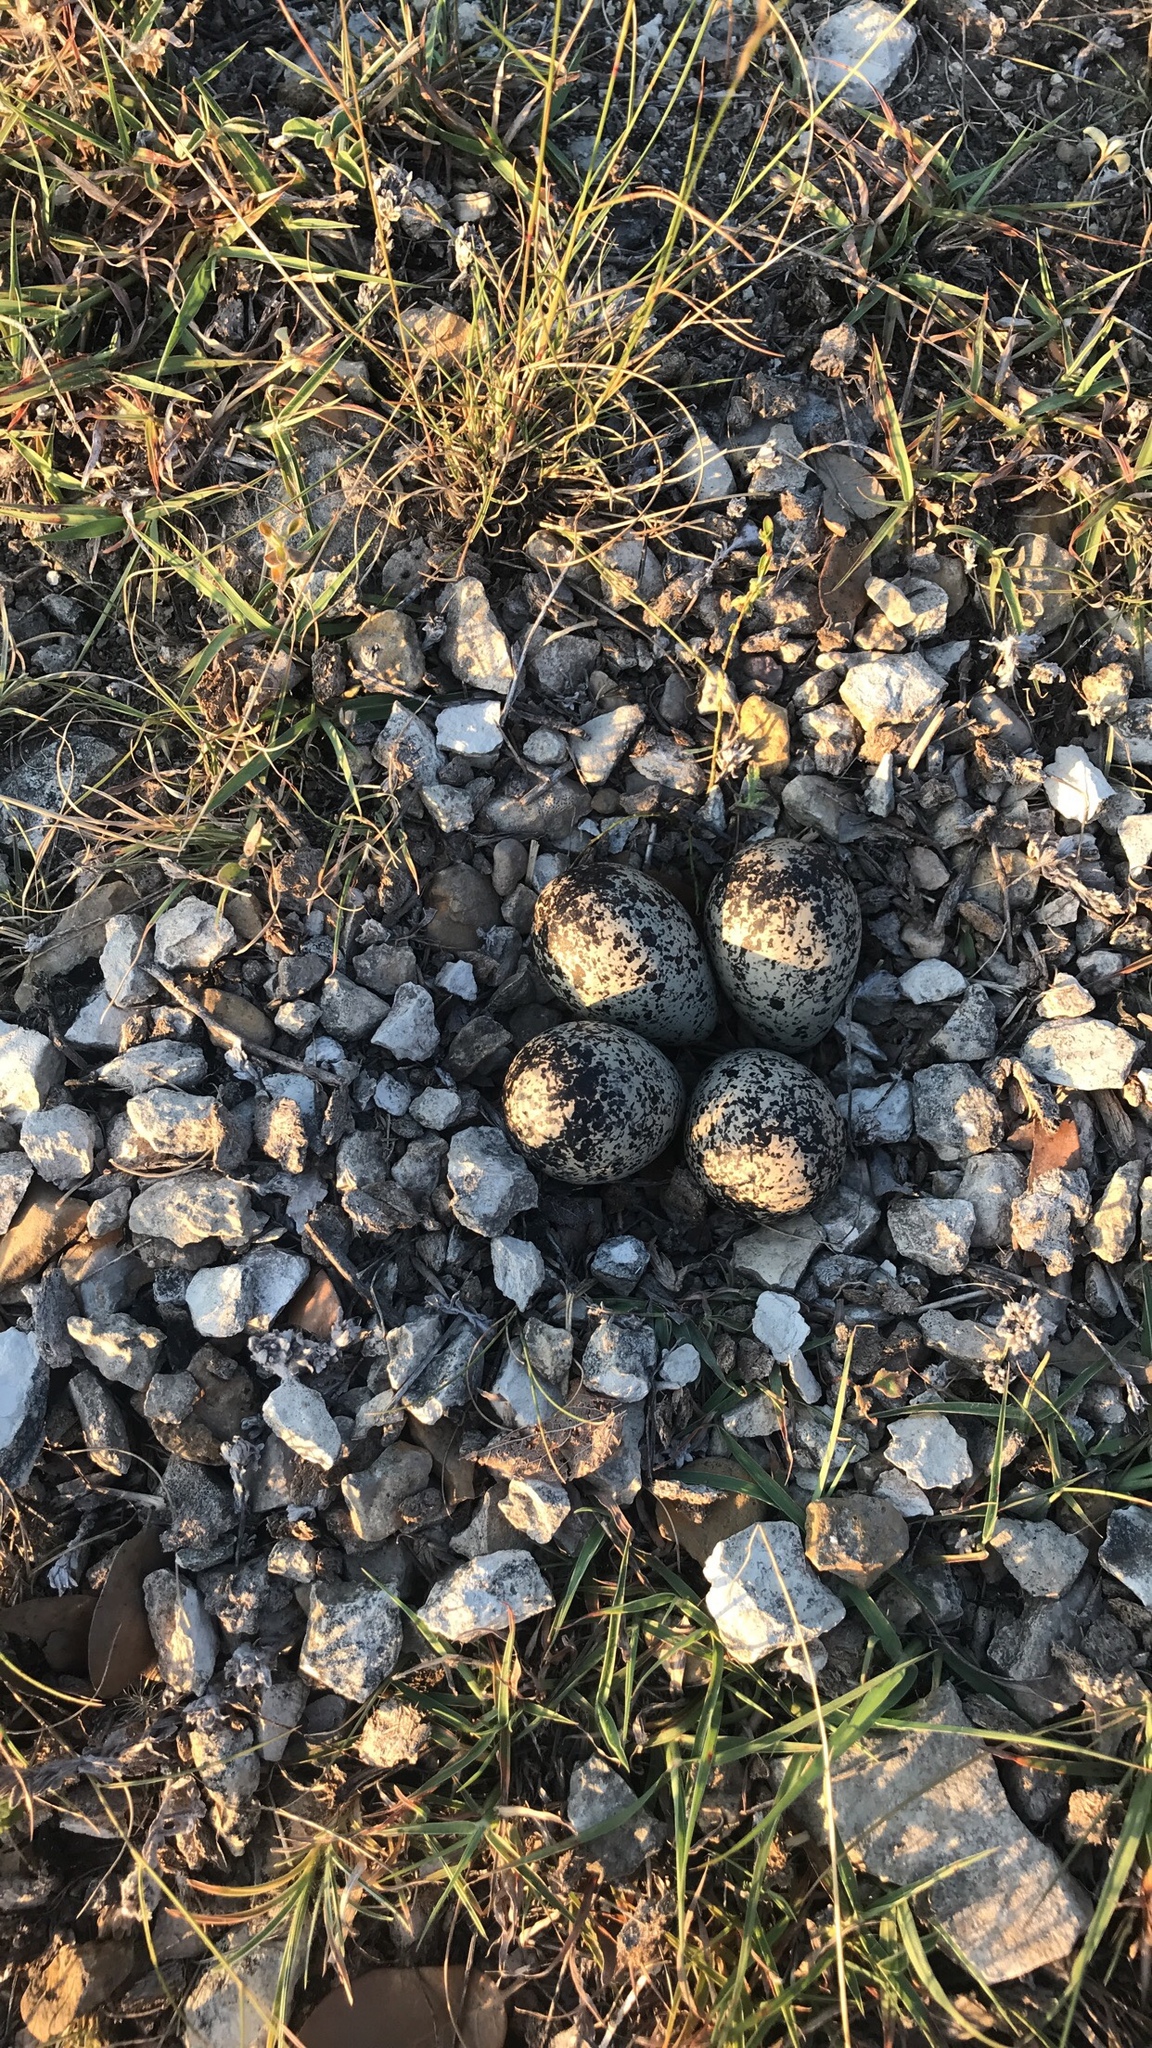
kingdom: Animalia
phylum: Chordata
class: Aves
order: Charadriiformes
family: Charadriidae
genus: Charadrius
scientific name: Charadrius vociferus
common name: Killdeer
